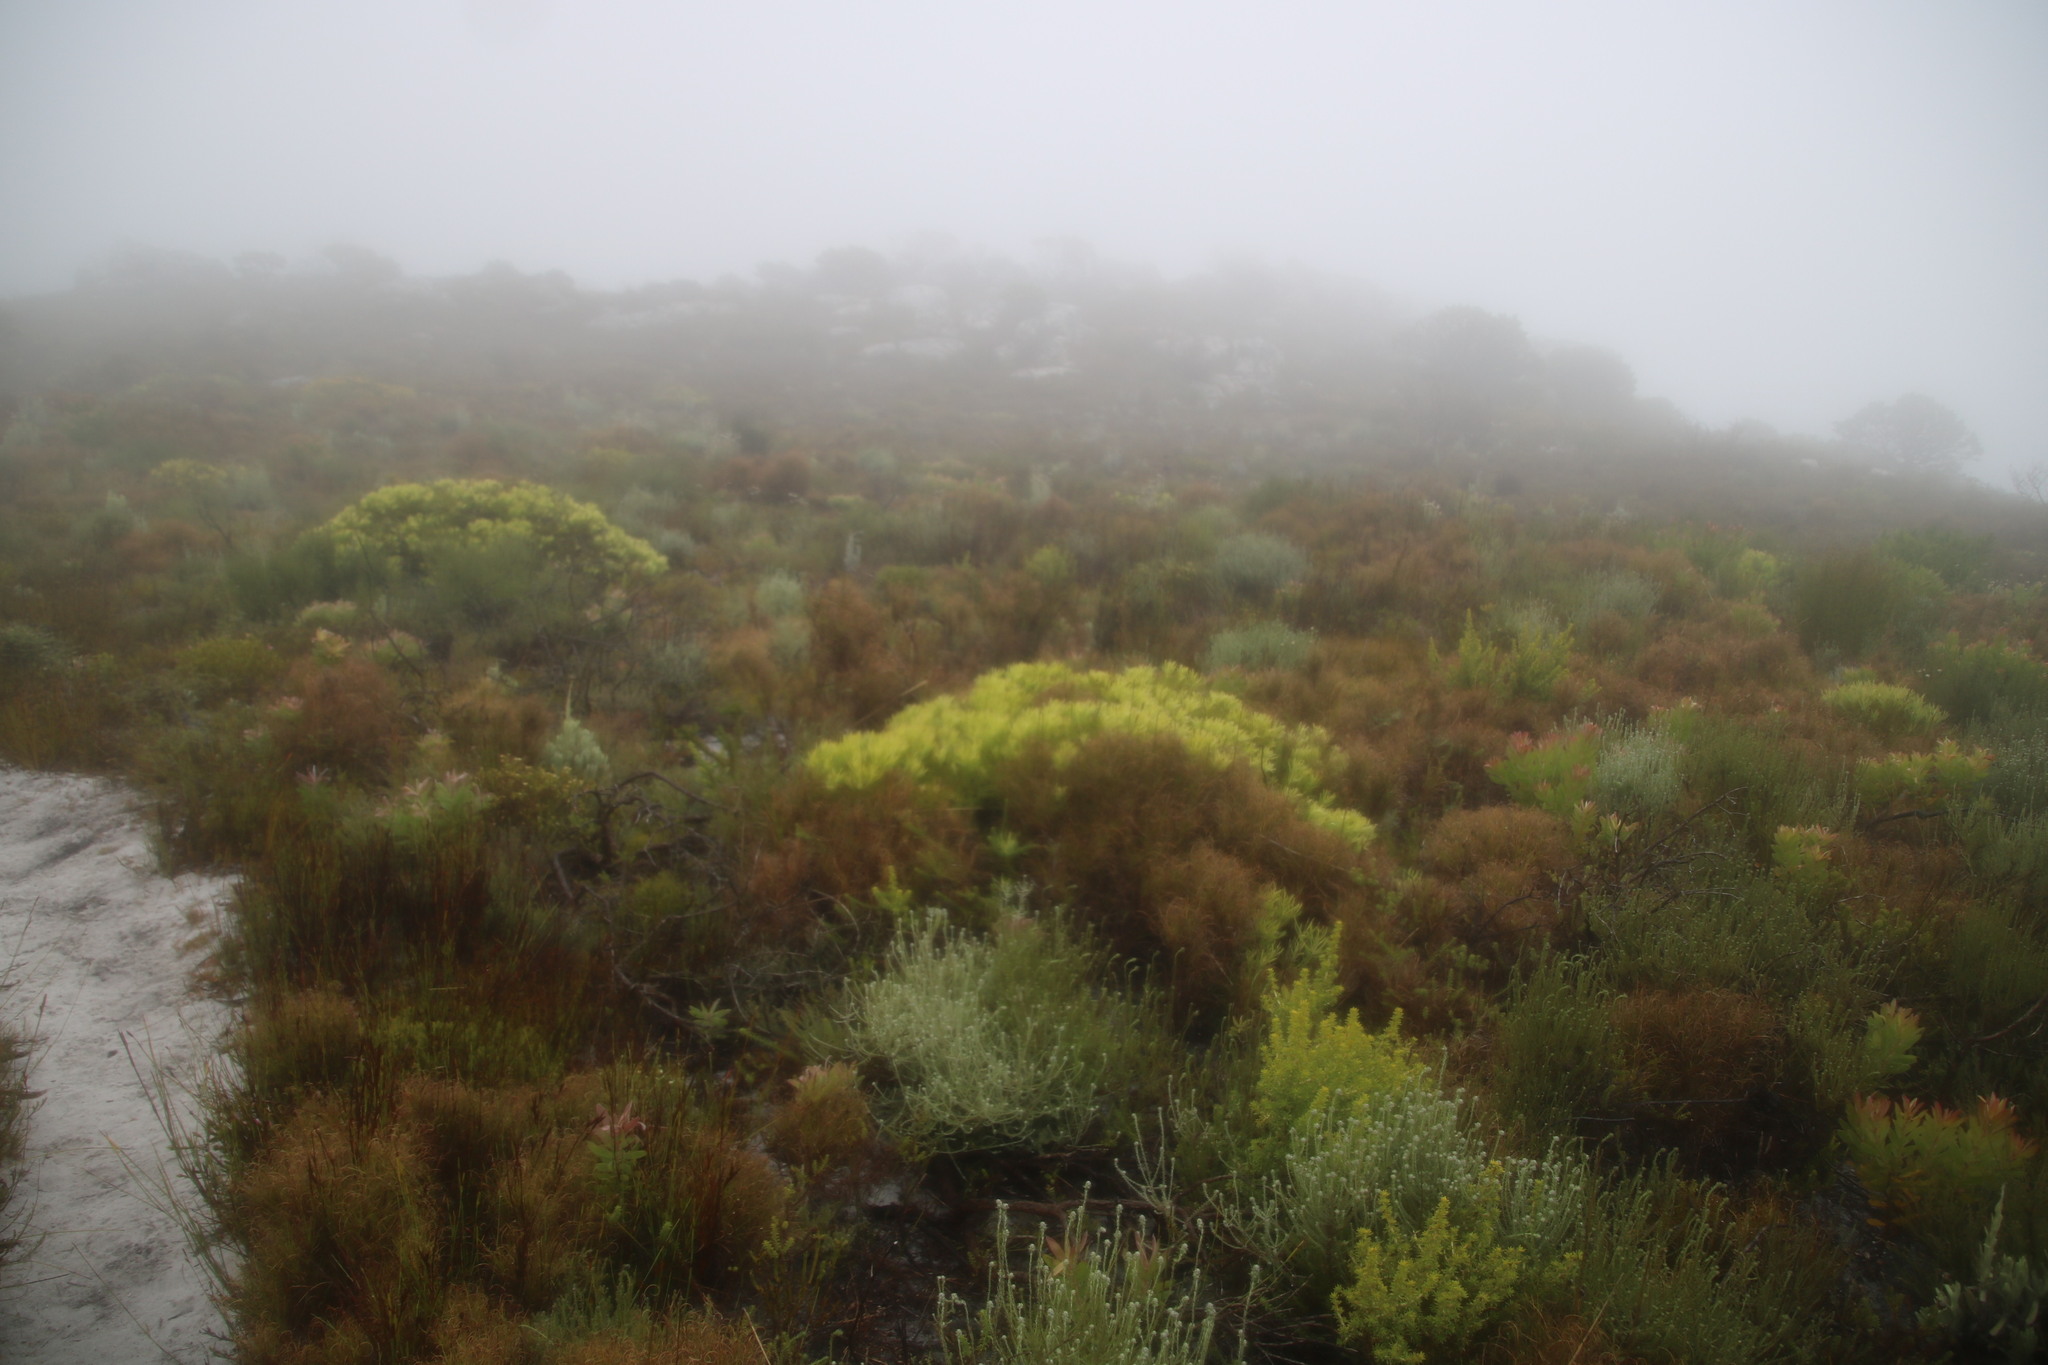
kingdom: Plantae
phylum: Tracheophyta
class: Magnoliopsida
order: Proteales
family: Proteaceae
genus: Leucadendron
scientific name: Leucadendron salignum
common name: Common sunshine conebush
